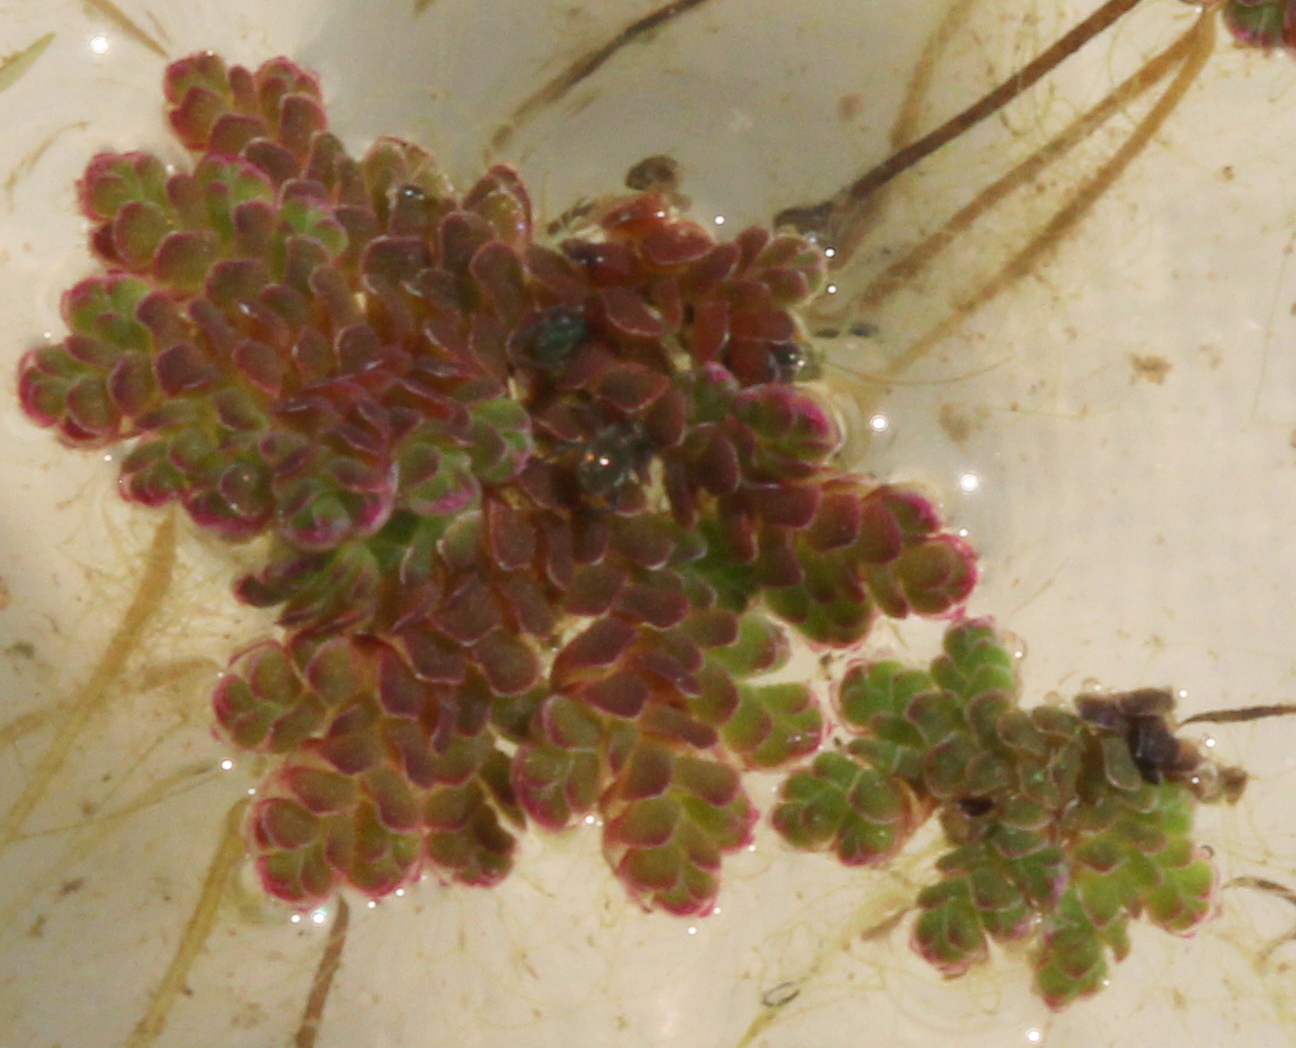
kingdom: Plantae
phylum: Tracheophyta
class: Polypodiopsida
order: Salviniales
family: Salviniaceae
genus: Azolla
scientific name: Azolla filiculoides
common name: Water fern
